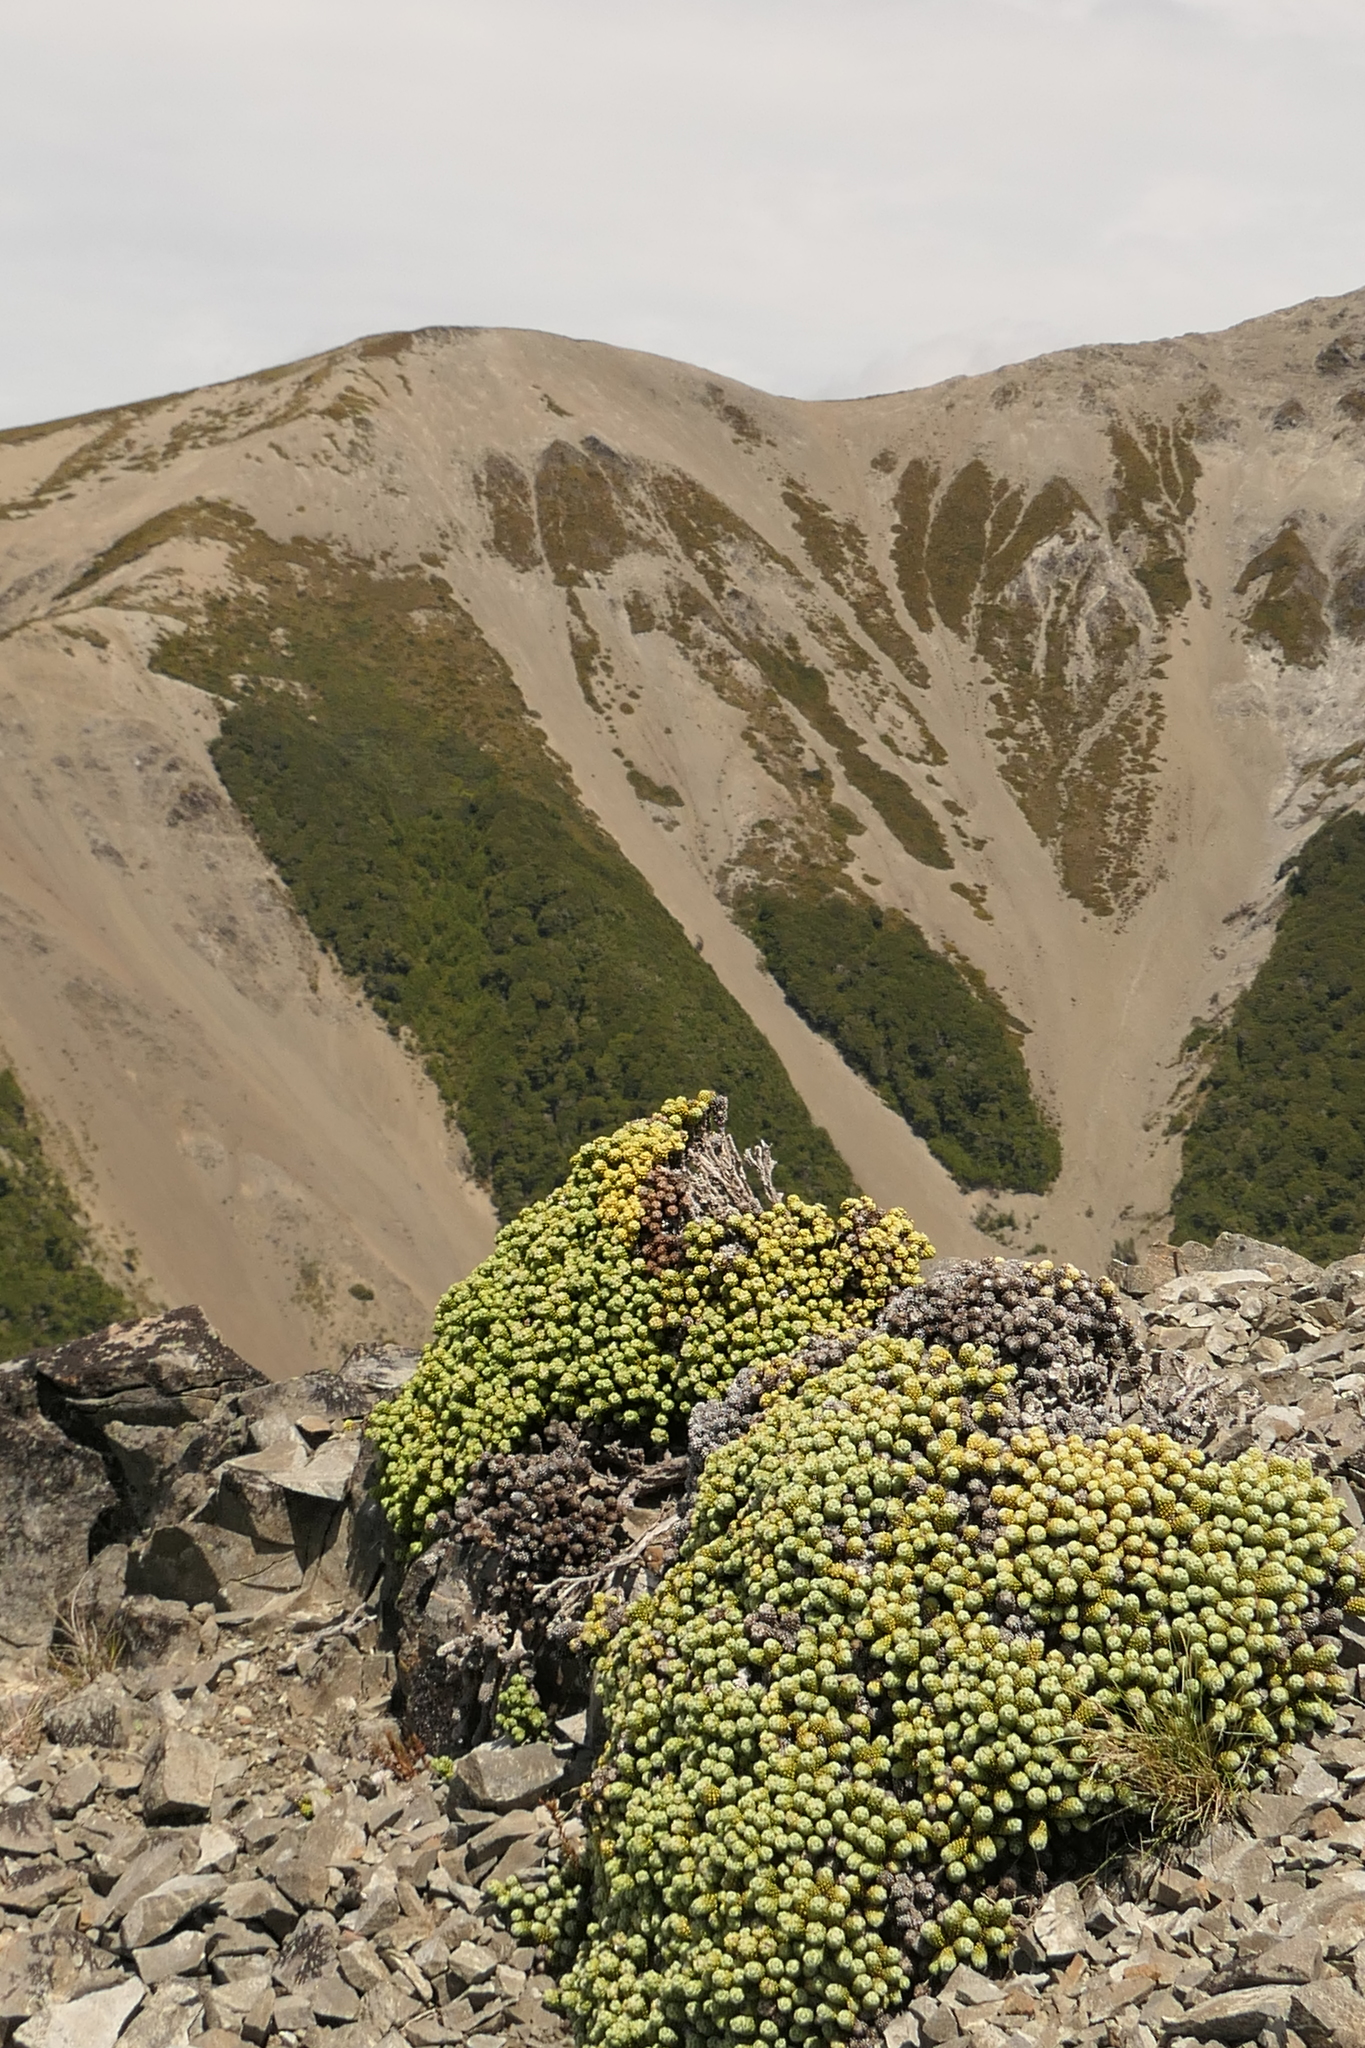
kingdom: Plantae
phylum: Tracheophyta
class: Magnoliopsida
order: Asterales
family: Asteraceae
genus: Ozothamnus
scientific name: Ozothamnus coralloides
